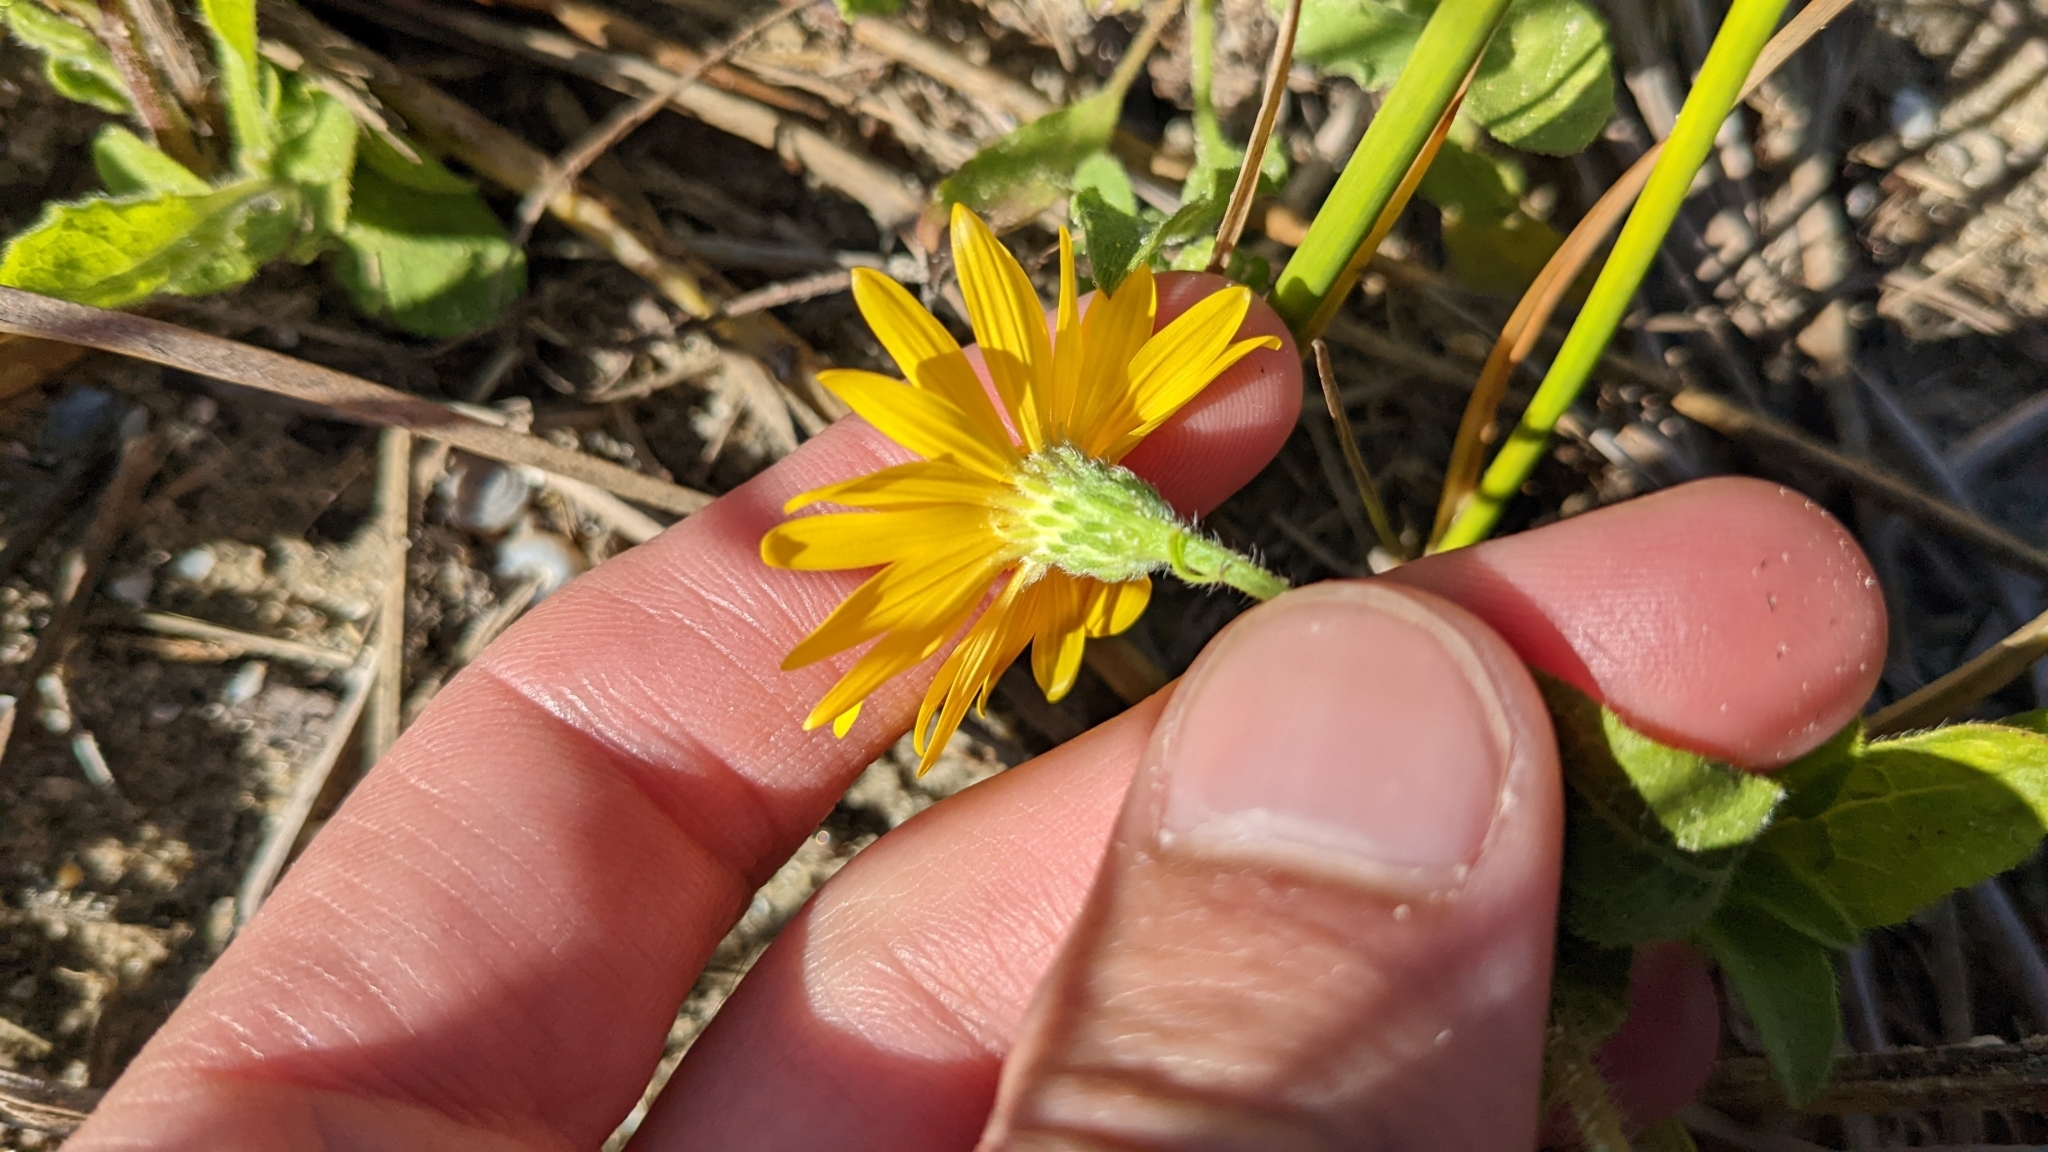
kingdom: Plantae
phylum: Tracheophyta
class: Magnoliopsida
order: Asterales
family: Asteraceae
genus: Heterotheca
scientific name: Heterotheca subaxillaris
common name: Camphorweed
